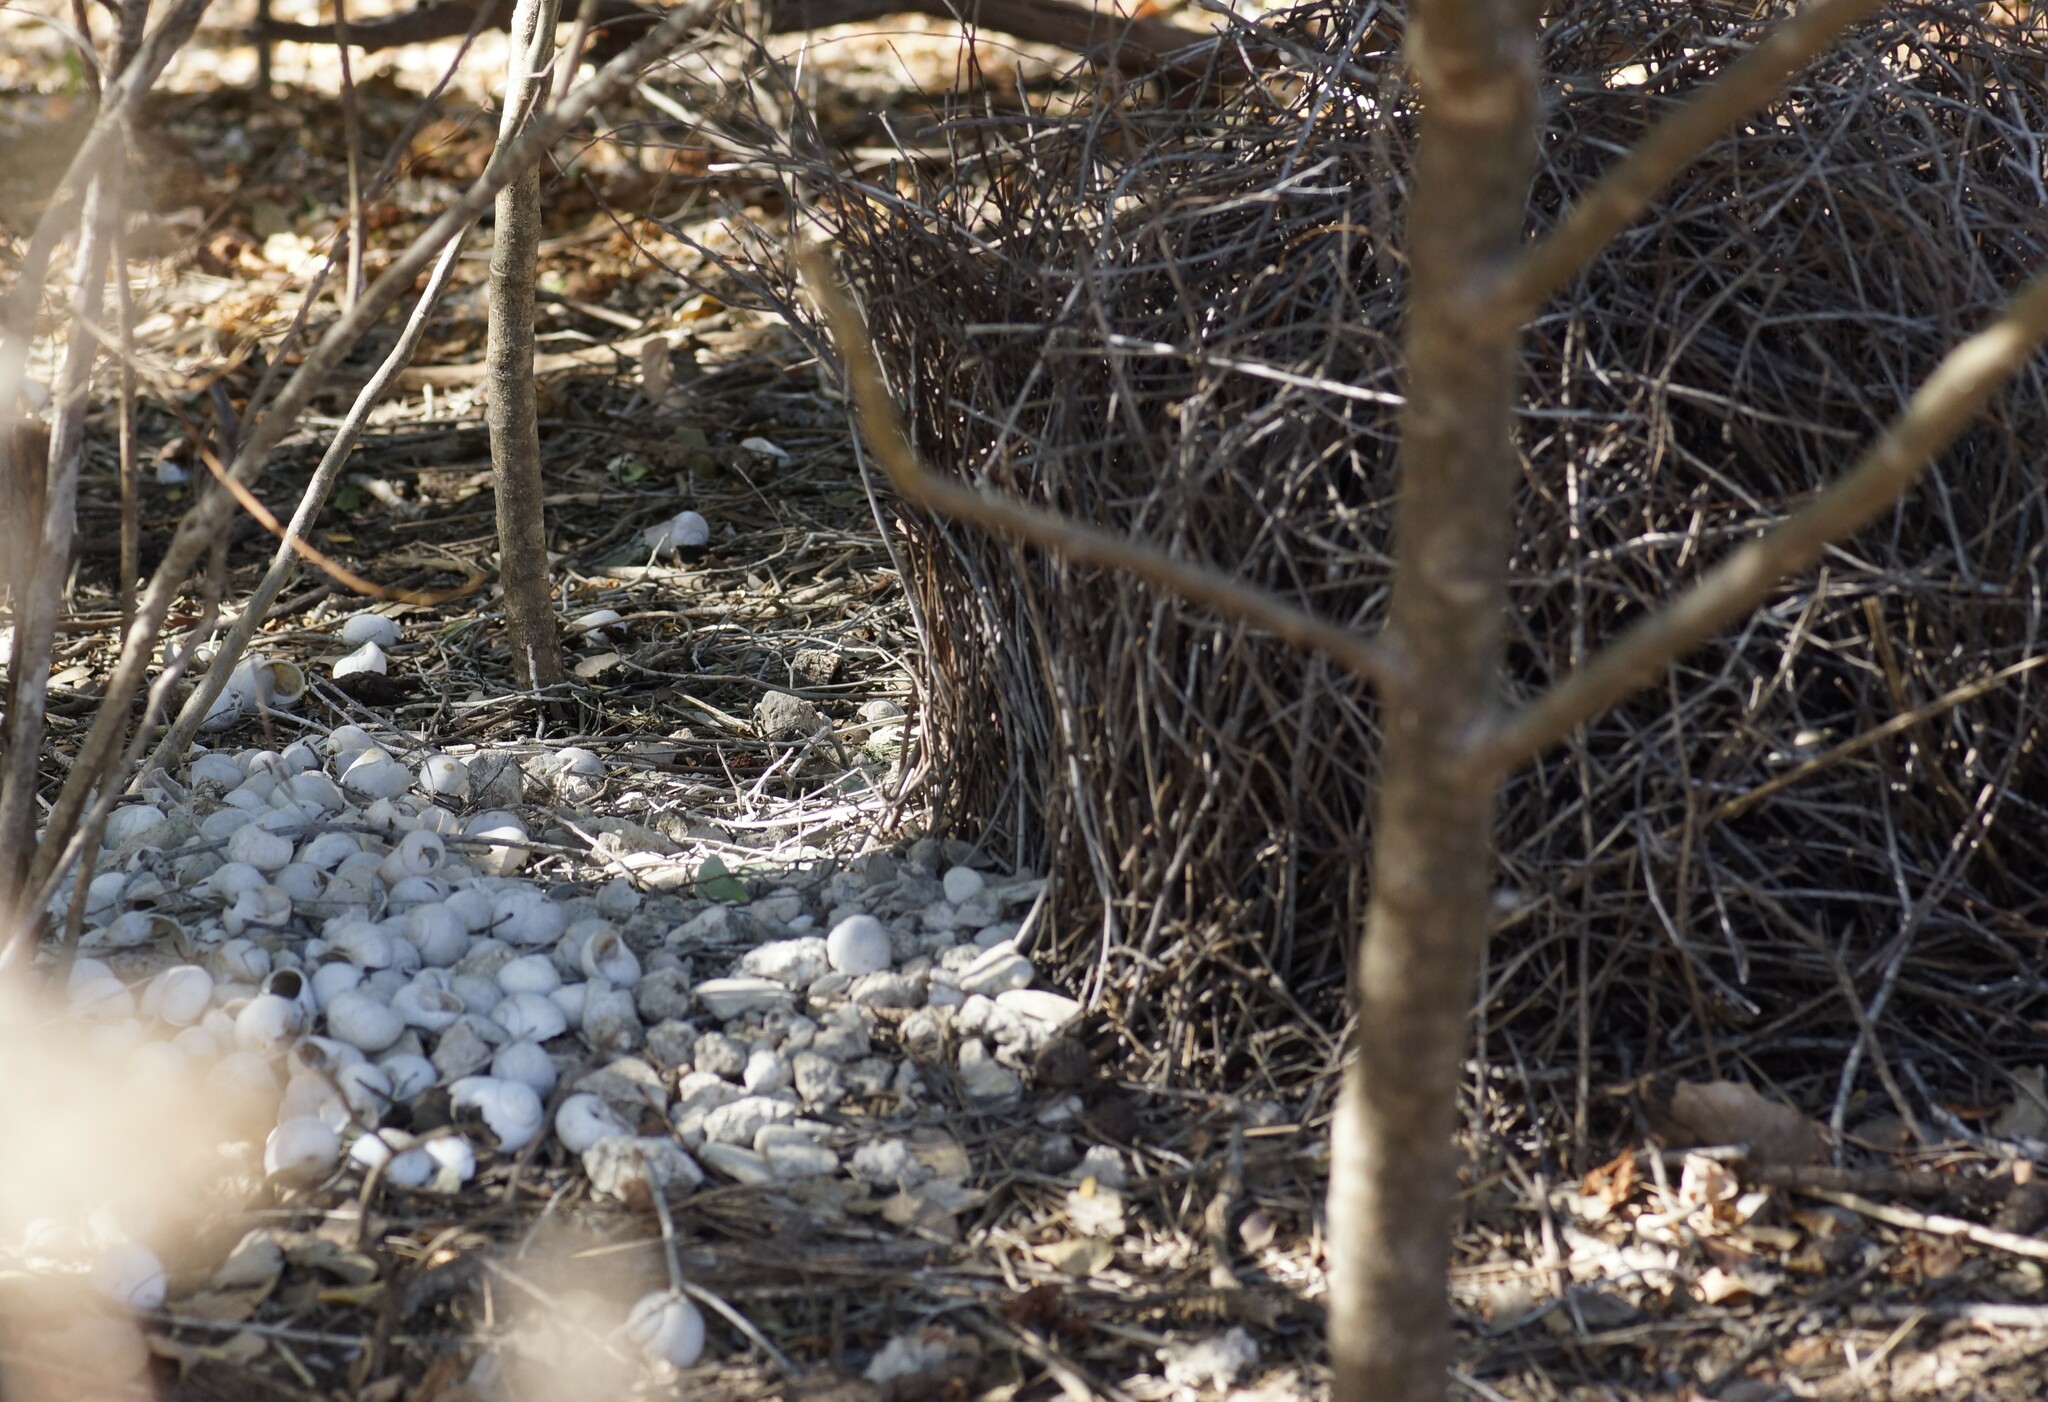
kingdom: Animalia
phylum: Chordata
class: Aves
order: Passeriformes
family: Ptilonorhynchidae
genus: Chlamydera
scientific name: Chlamydera nuchalis
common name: Great bowerbird
